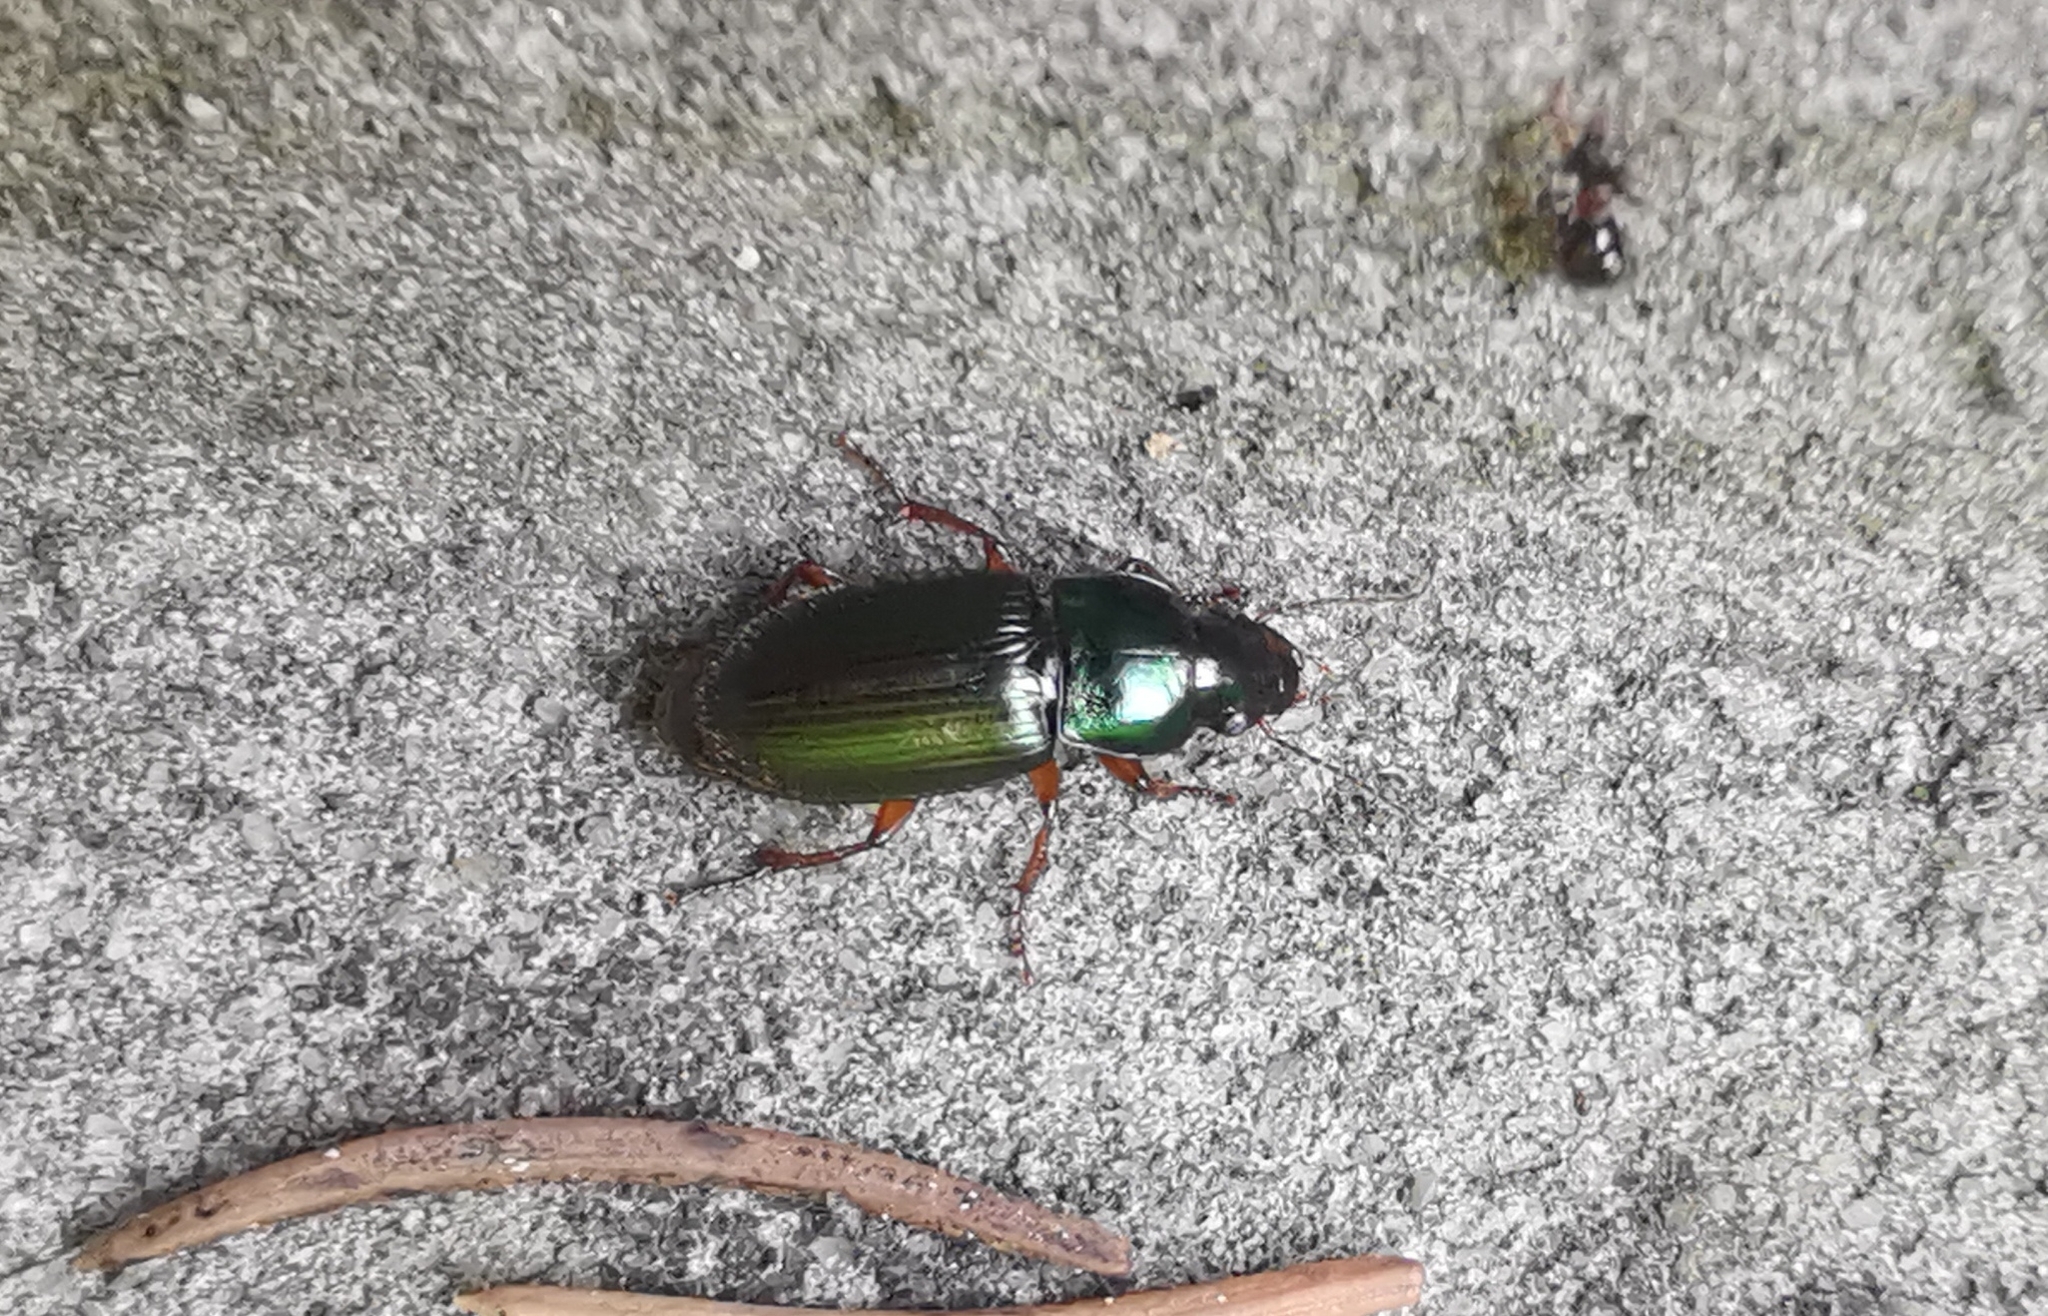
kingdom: Animalia
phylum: Arthropoda
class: Insecta
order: Coleoptera
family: Carabidae
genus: Harpalus
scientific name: Harpalus affinis
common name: Polychrome harp ground beetle
